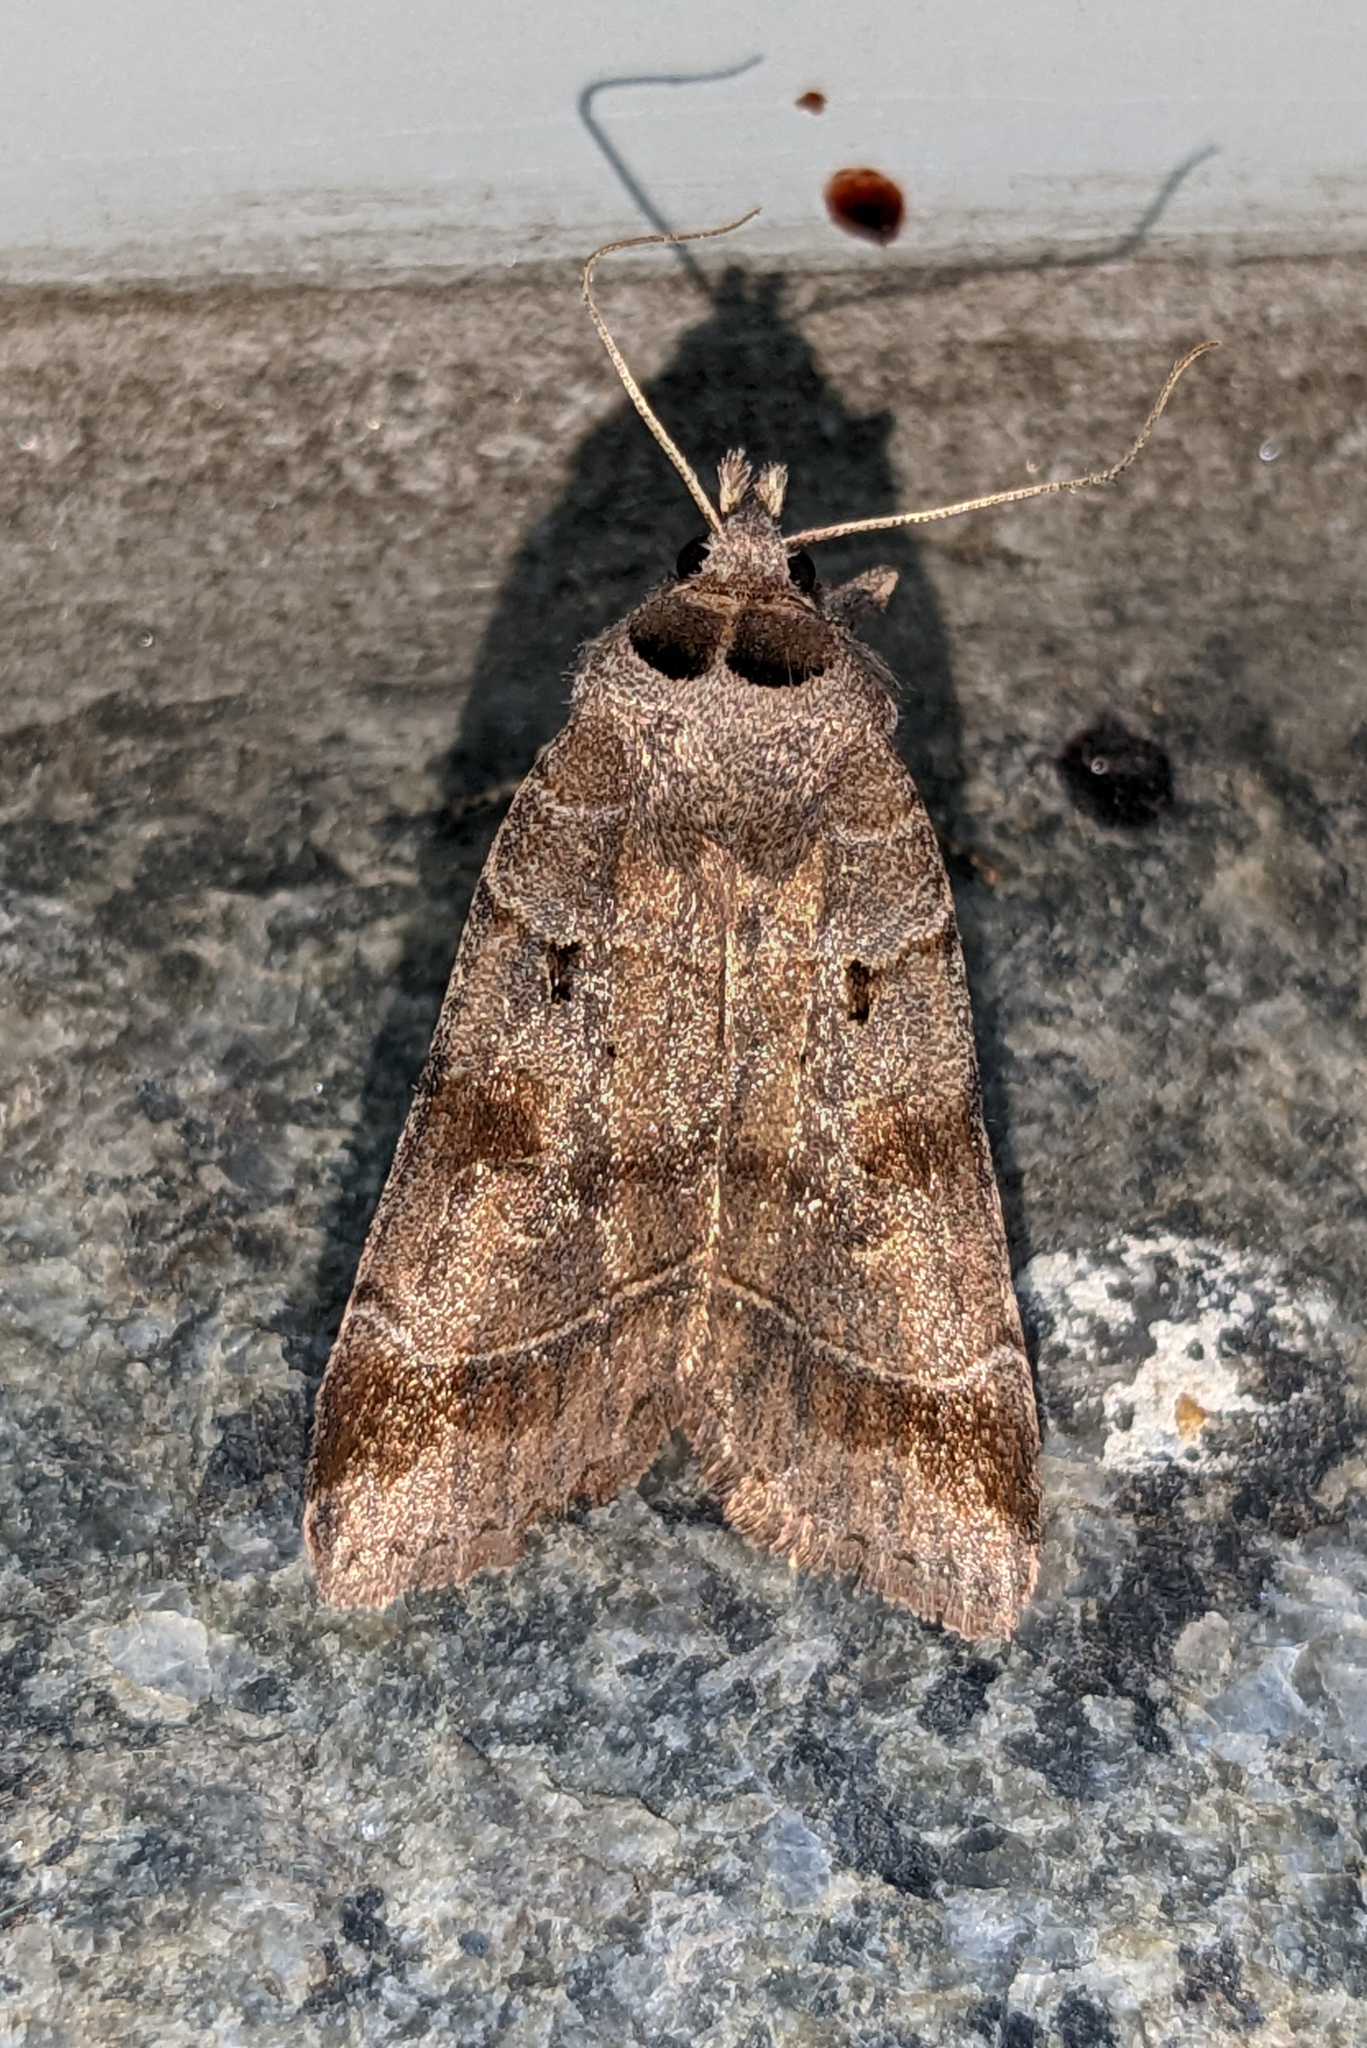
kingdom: Animalia
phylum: Arthropoda
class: Insecta
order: Lepidoptera
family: Noctuidae
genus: Agnorisma
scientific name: Agnorisma badinodis
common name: Pale-banded dart
